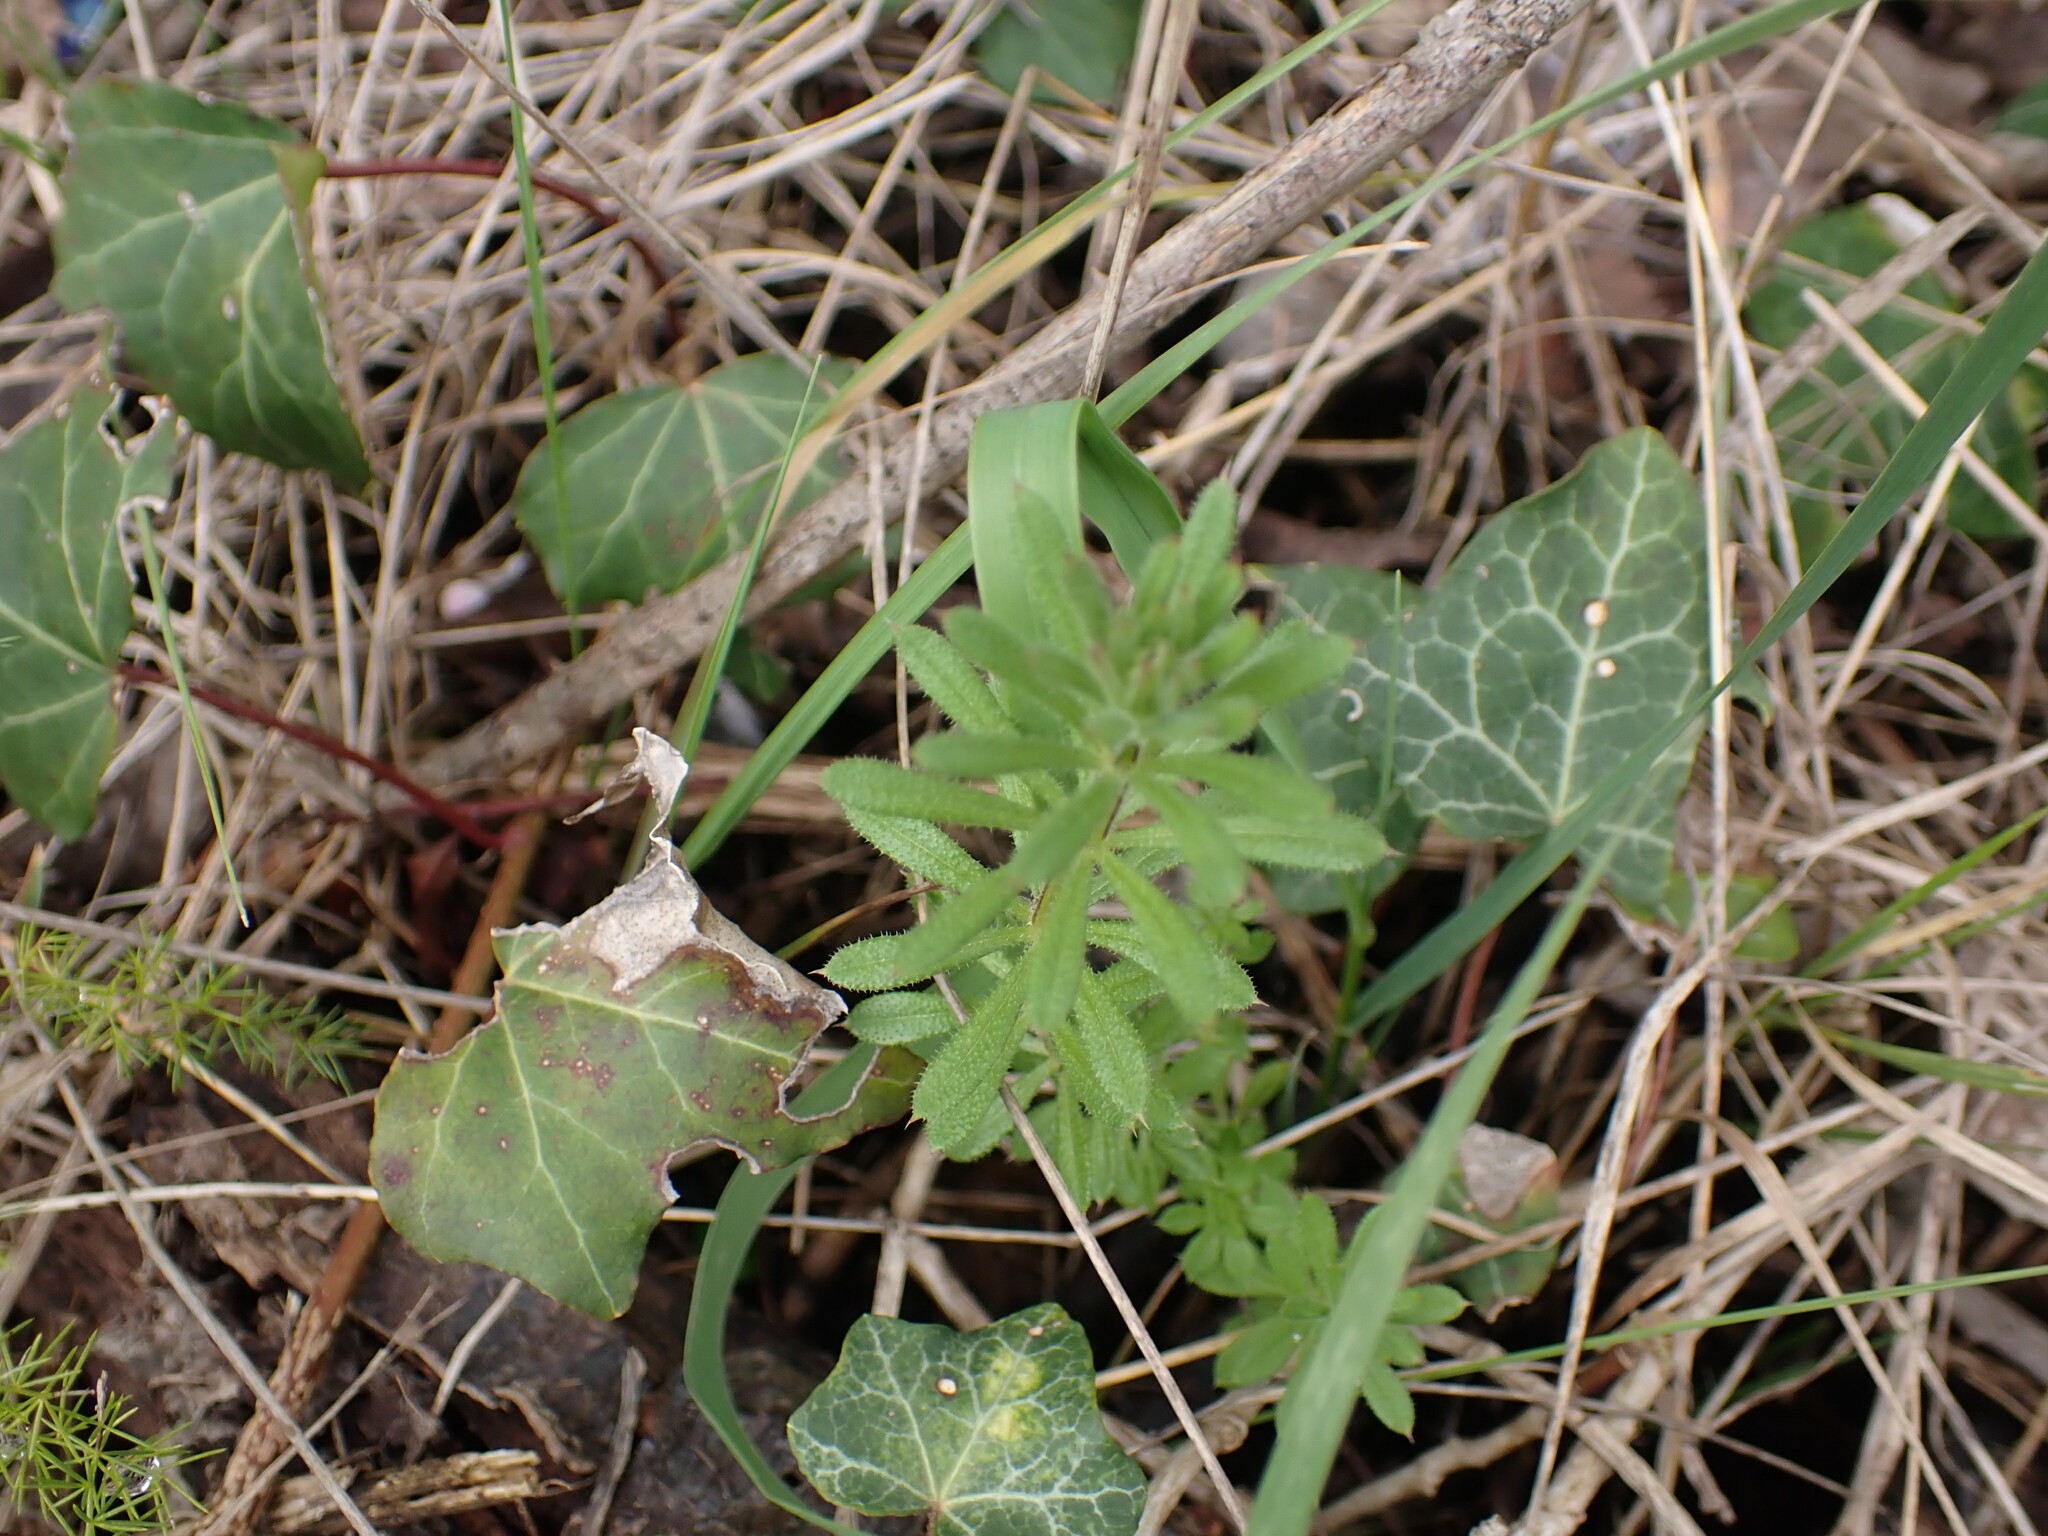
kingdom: Plantae
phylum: Tracheophyta
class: Magnoliopsida
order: Gentianales
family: Rubiaceae
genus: Galium
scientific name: Galium aparine
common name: Cleavers
